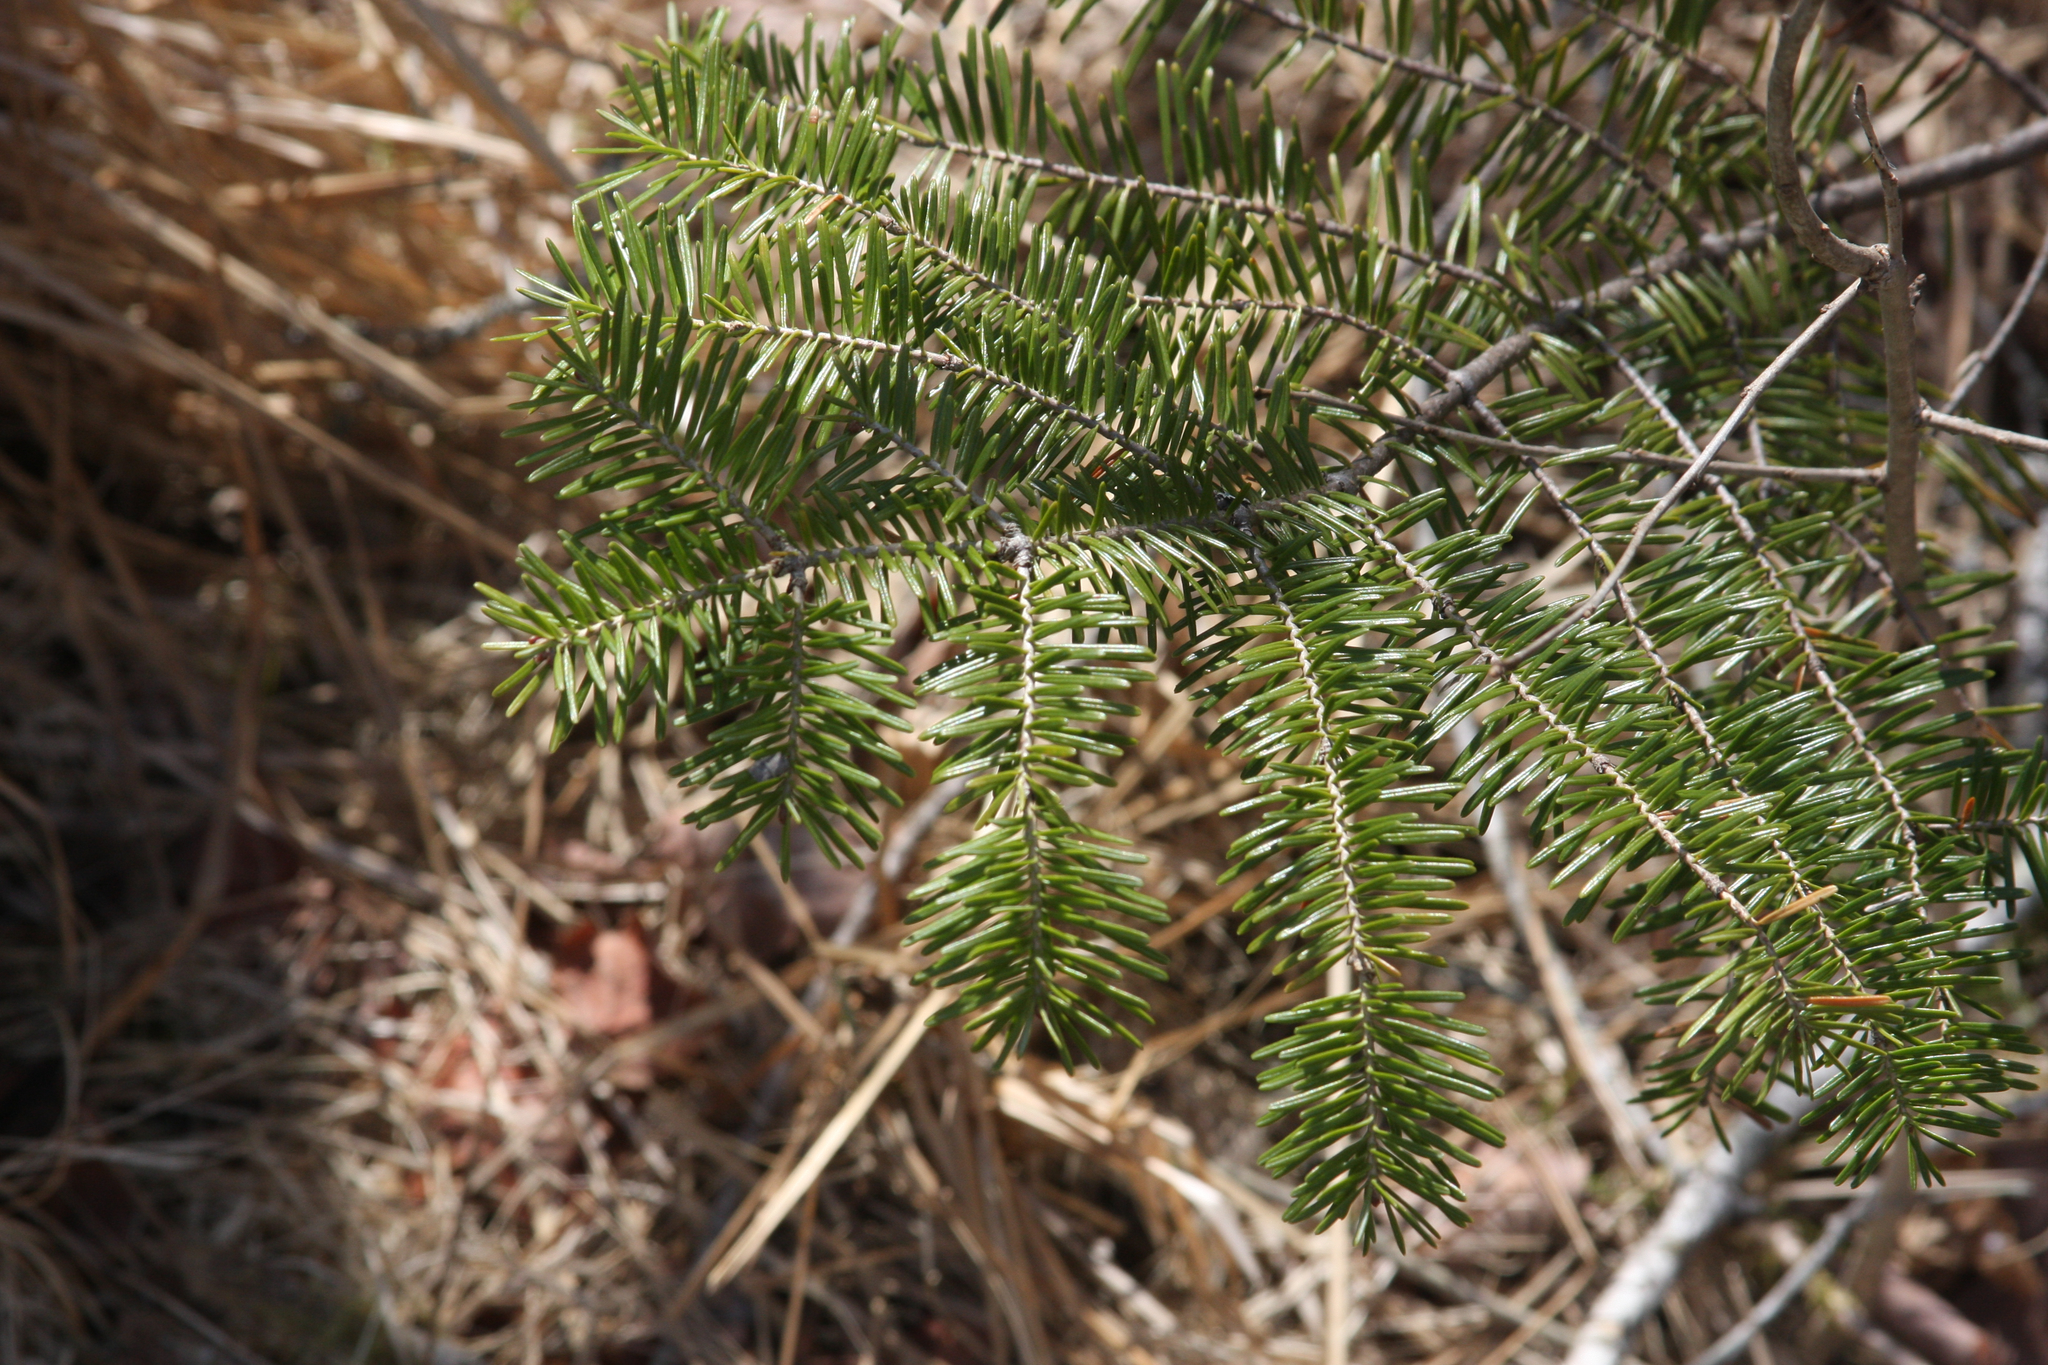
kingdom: Plantae
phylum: Tracheophyta
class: Pinopsida
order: Pinales
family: Pinaceae
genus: Abies
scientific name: Abies balsamea
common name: Balsam fir
